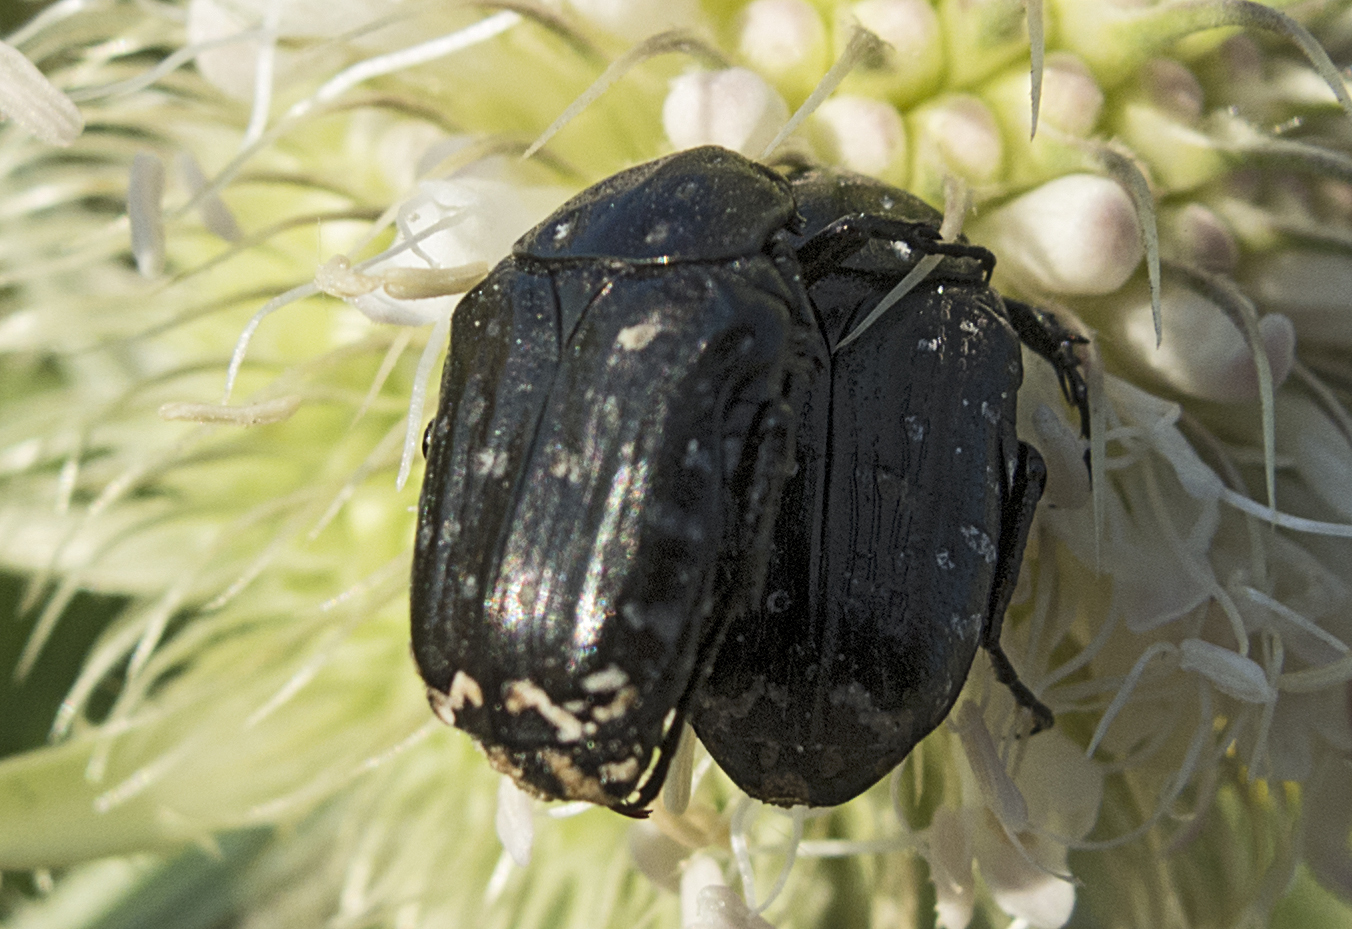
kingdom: Animalia
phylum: Arthropoda
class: Insecta
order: Coleoptera
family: Scarabaeidae
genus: Oxythyrea
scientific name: Oxythyrea funesta
